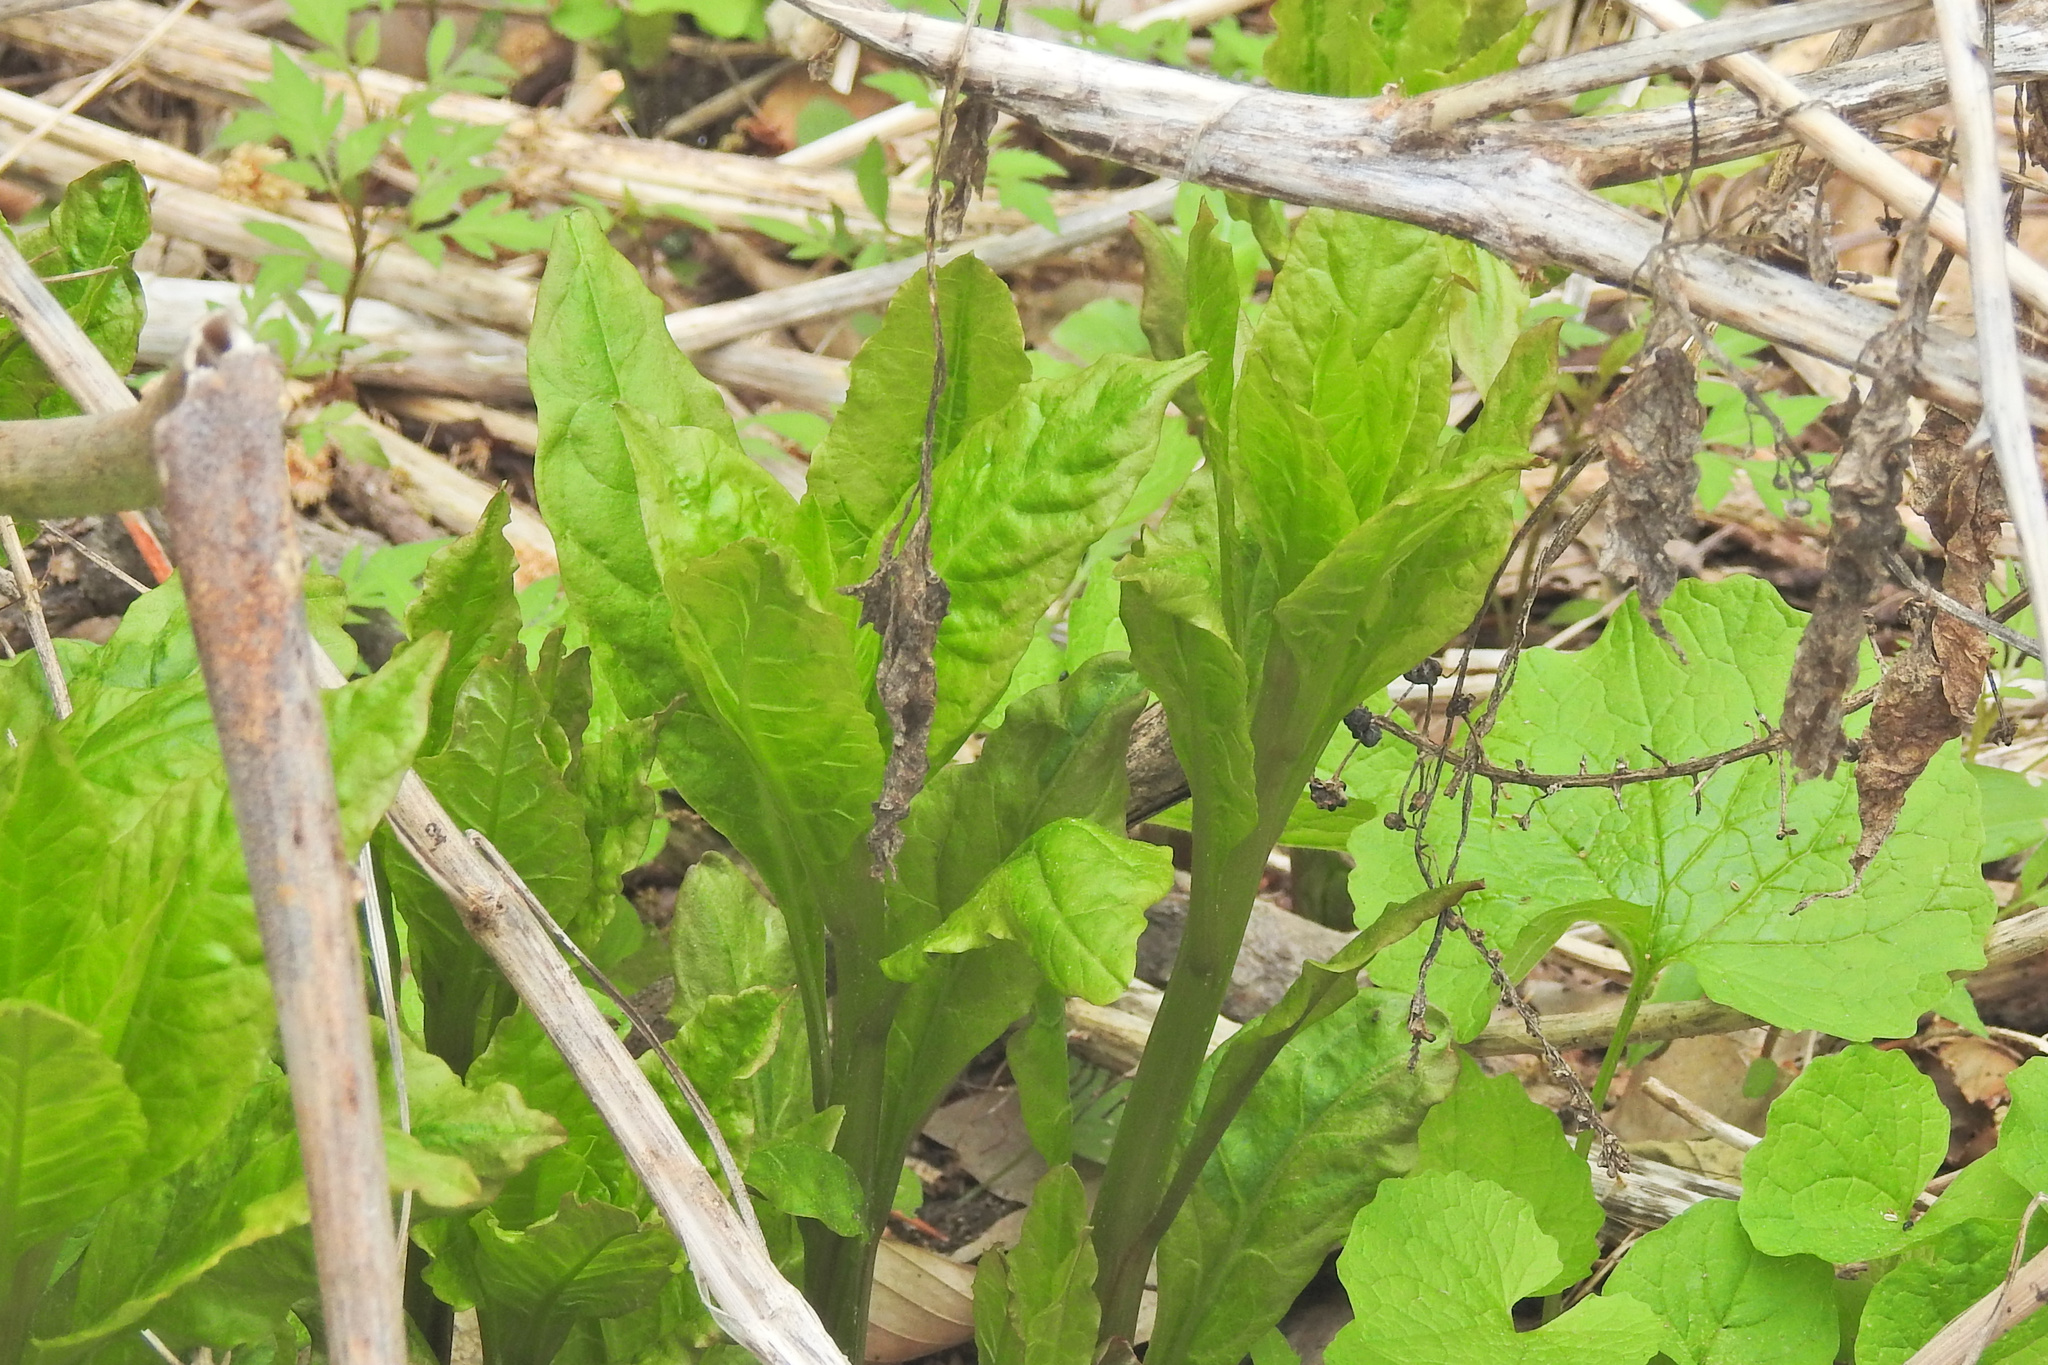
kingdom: Plantae
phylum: Tracheophyta
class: Magnoliopsida
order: Caryophyllales
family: Phytolaccaceae
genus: Phytolacca
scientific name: Phytolacca americana
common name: American pokeweed
